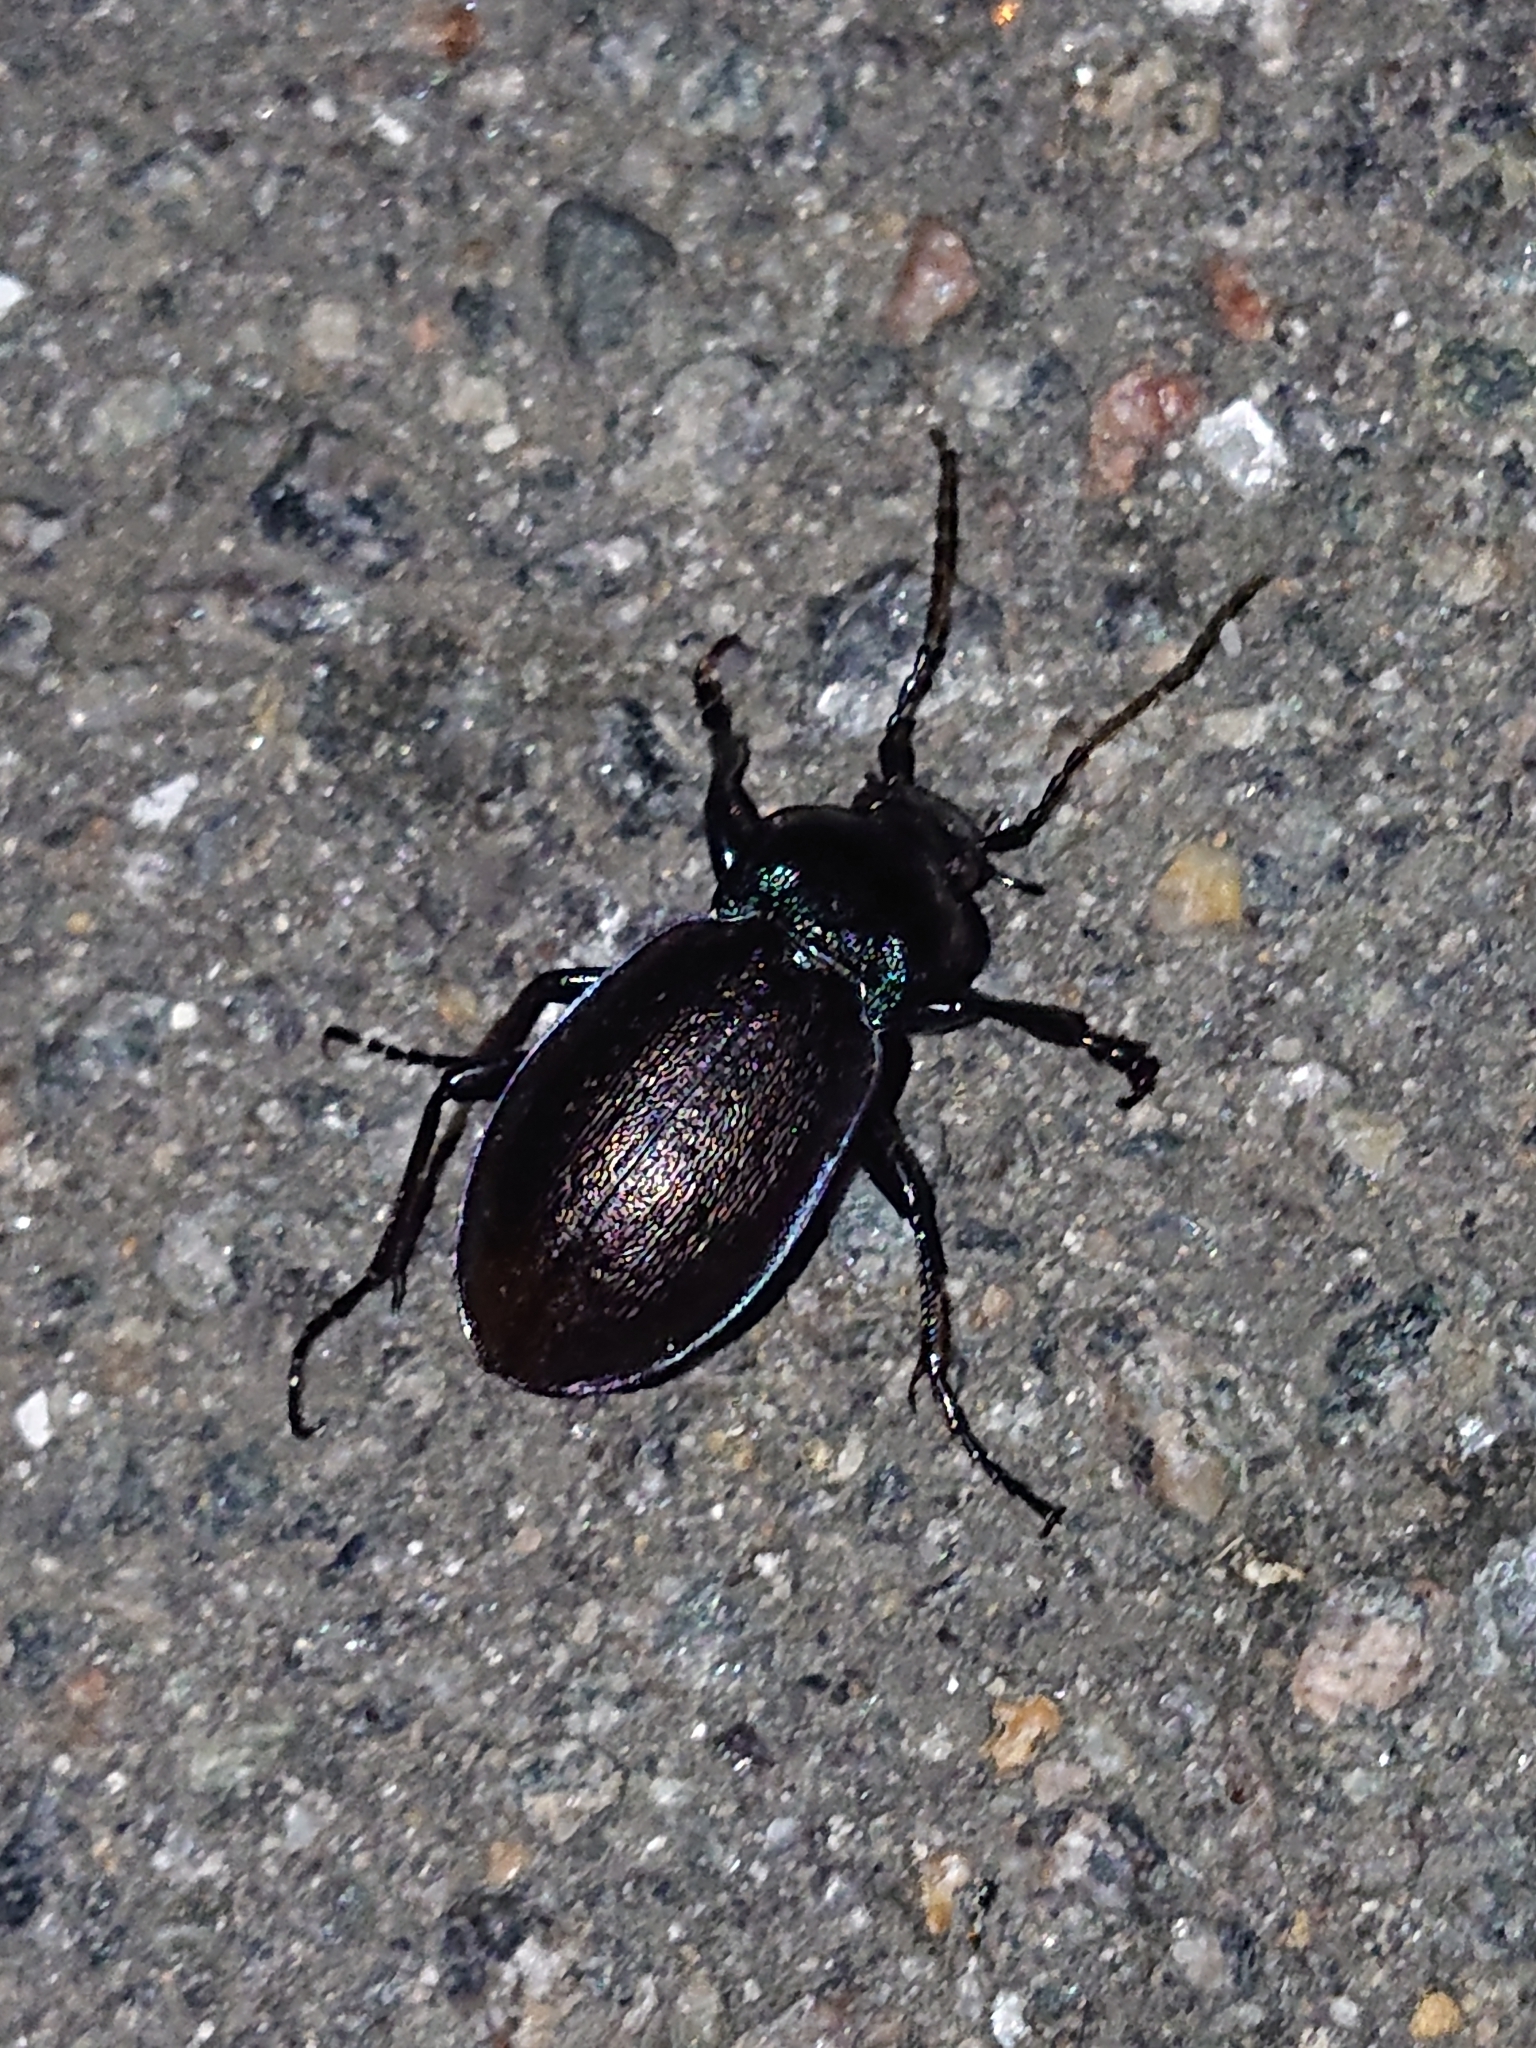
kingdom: Animalia
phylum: Arthropoda
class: Insecta
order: Coleoptera
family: Carabidae
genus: Carabus
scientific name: Carabus nemoralis
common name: European ground beetle
